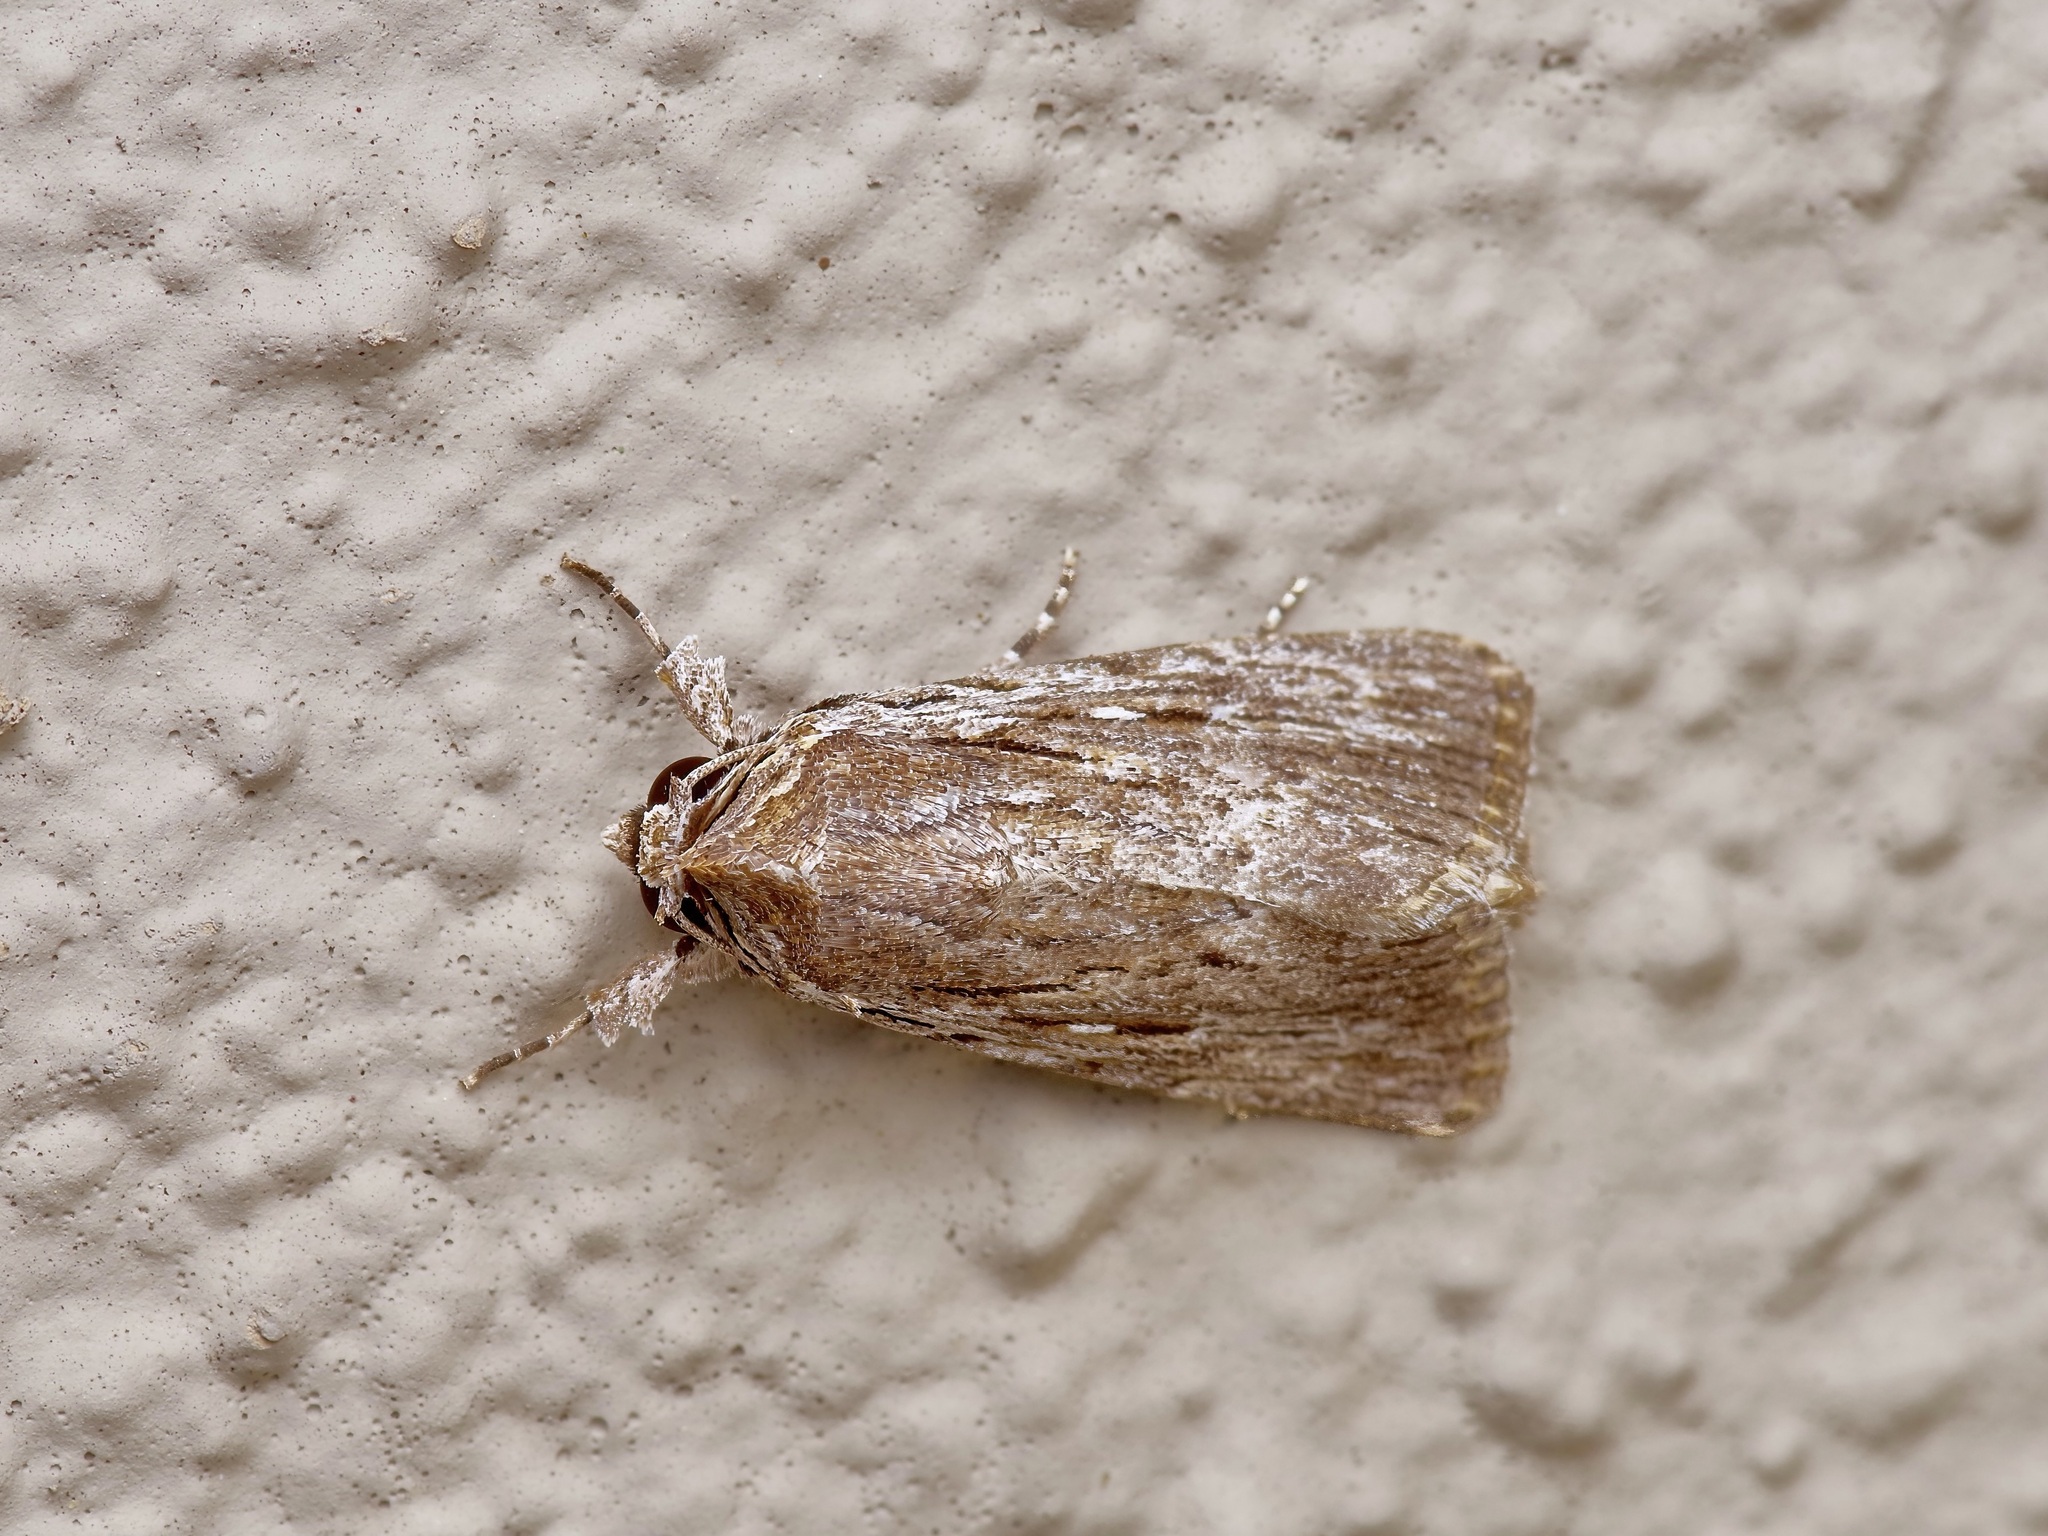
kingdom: Animalia
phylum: Arthropoda
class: Insecta
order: Lepidoptera
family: Noctuidae
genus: Neogalea
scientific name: Neogalea sunia
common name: Lantana stick caterpillar
